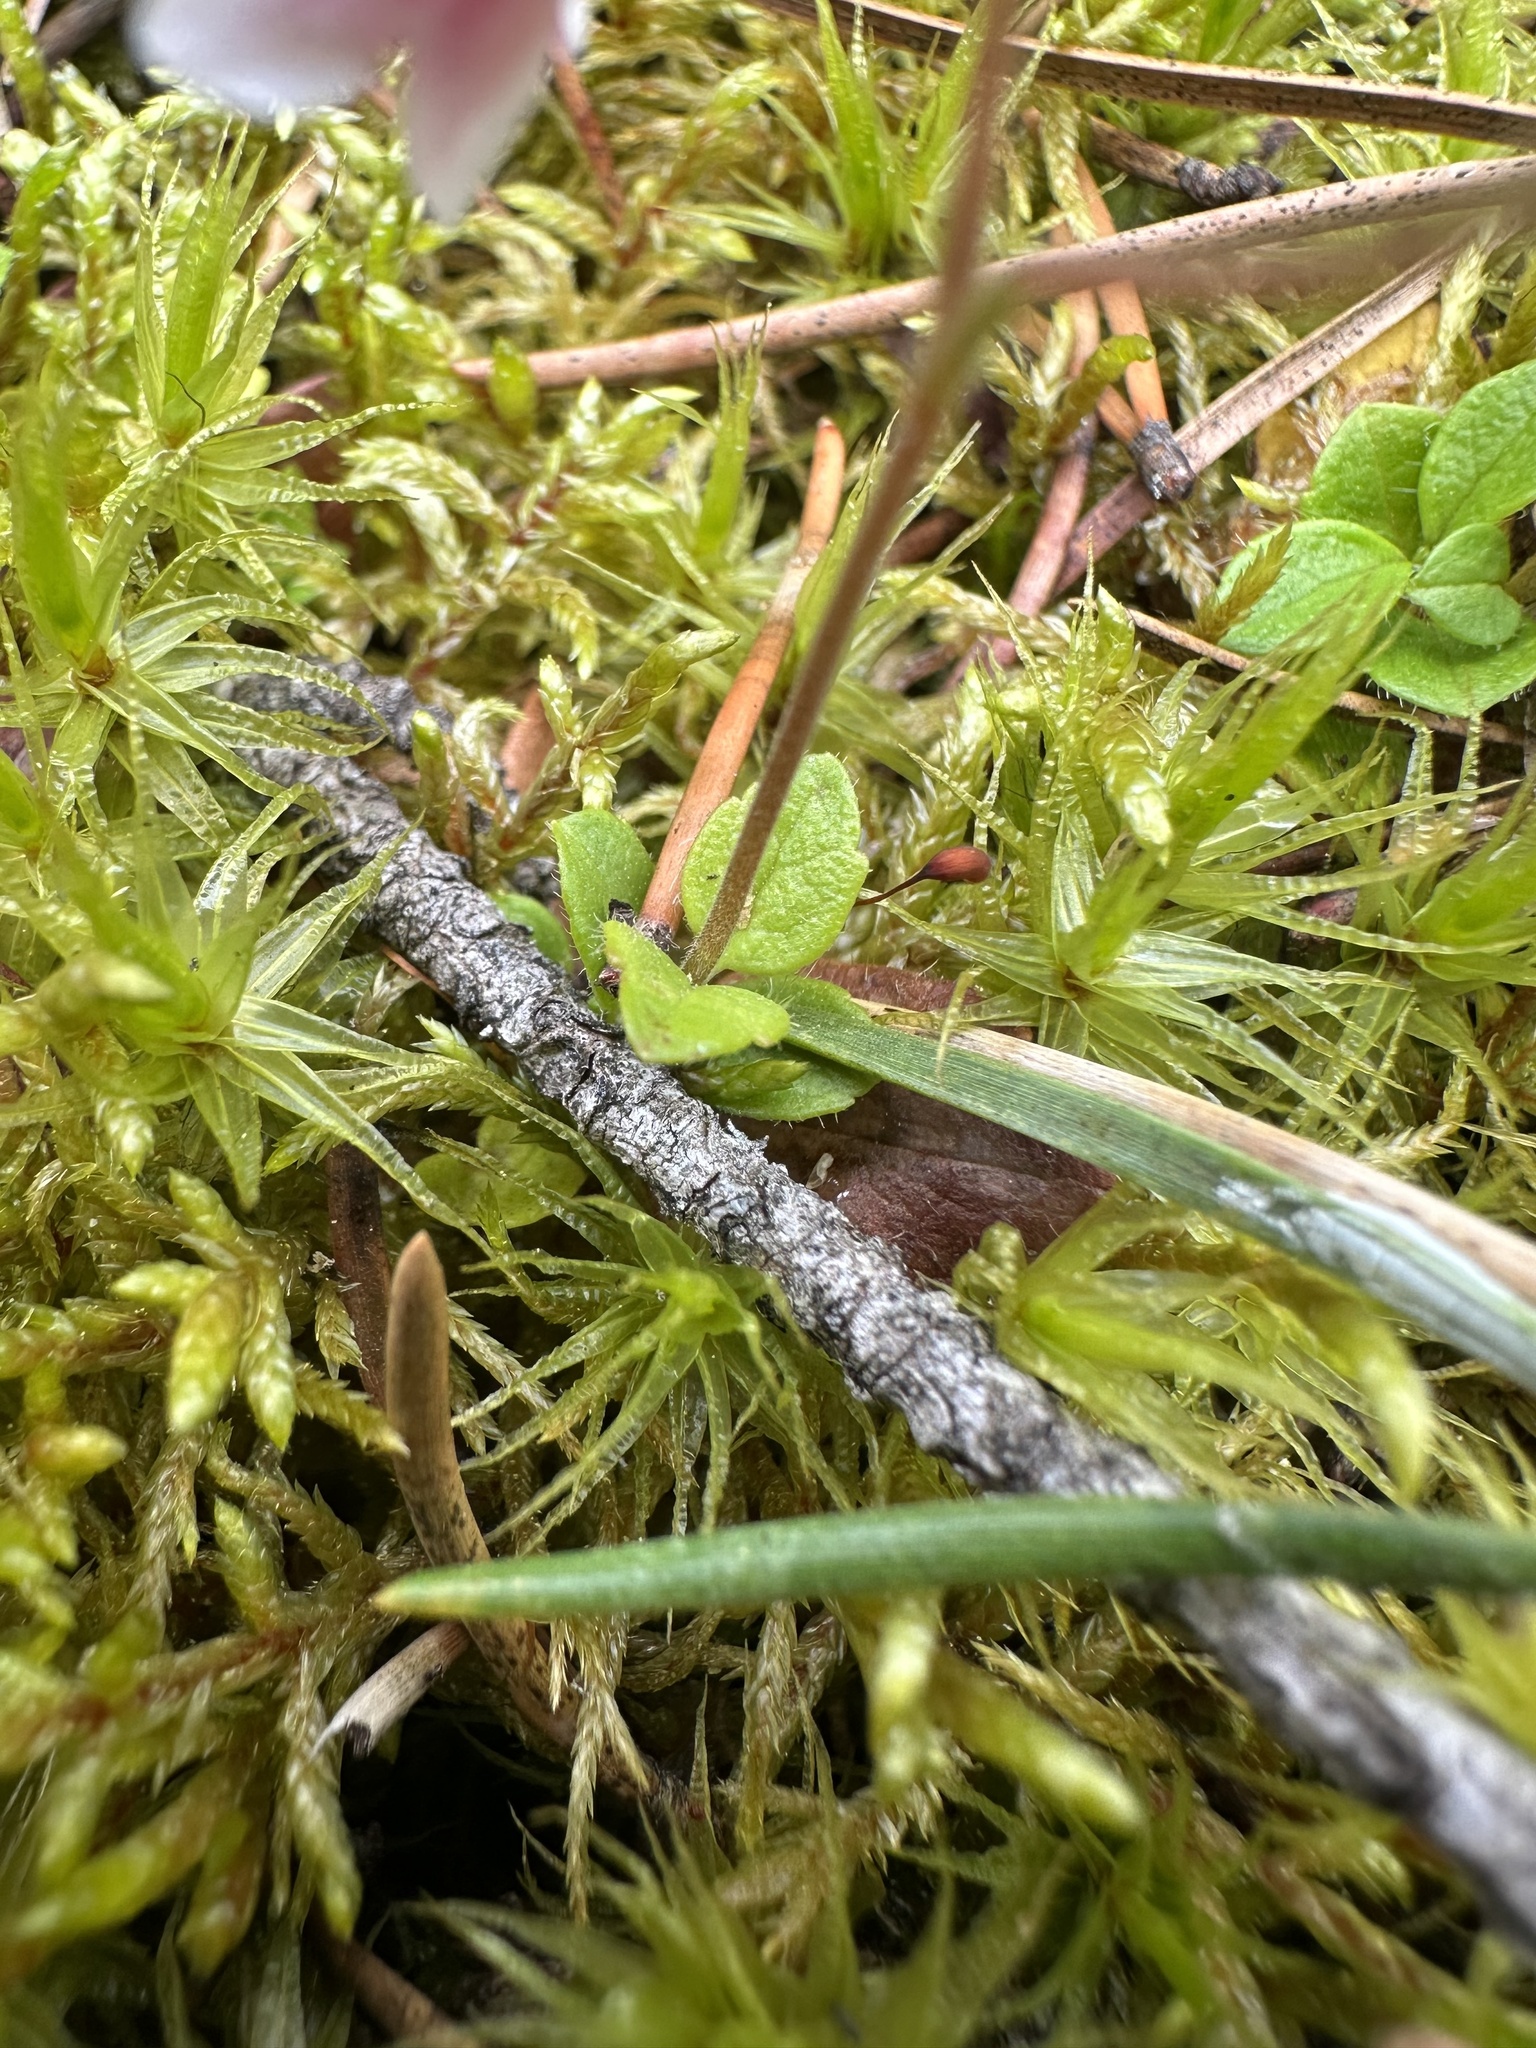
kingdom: Plantae
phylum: Tracheophyta
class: Magnoliopsida
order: Dipsacales
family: Caprifoliaceae
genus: Linnaea
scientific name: Linnaea borealis
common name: Twinflower
